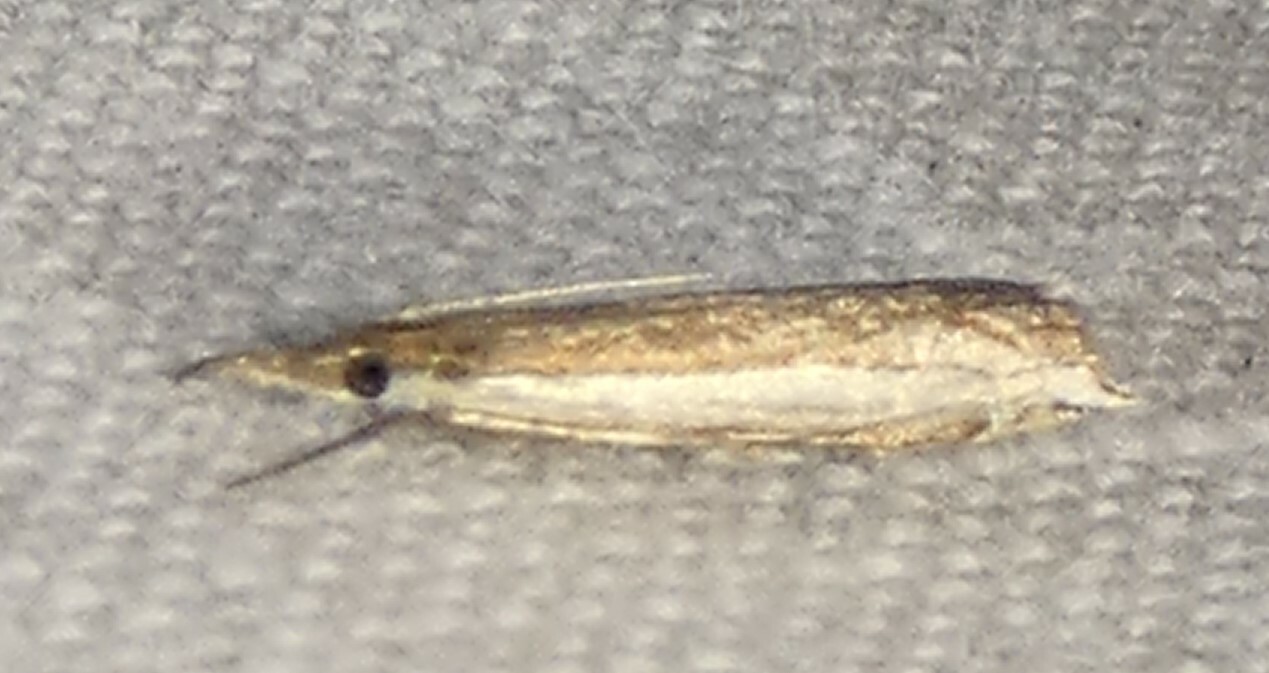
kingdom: Animalia
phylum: Arthropoda
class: Insecta
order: Lepidoptera
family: Crambidae
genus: Raphiptera
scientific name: Raphiptera argillaceellus
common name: Diminutive grass-veneer
